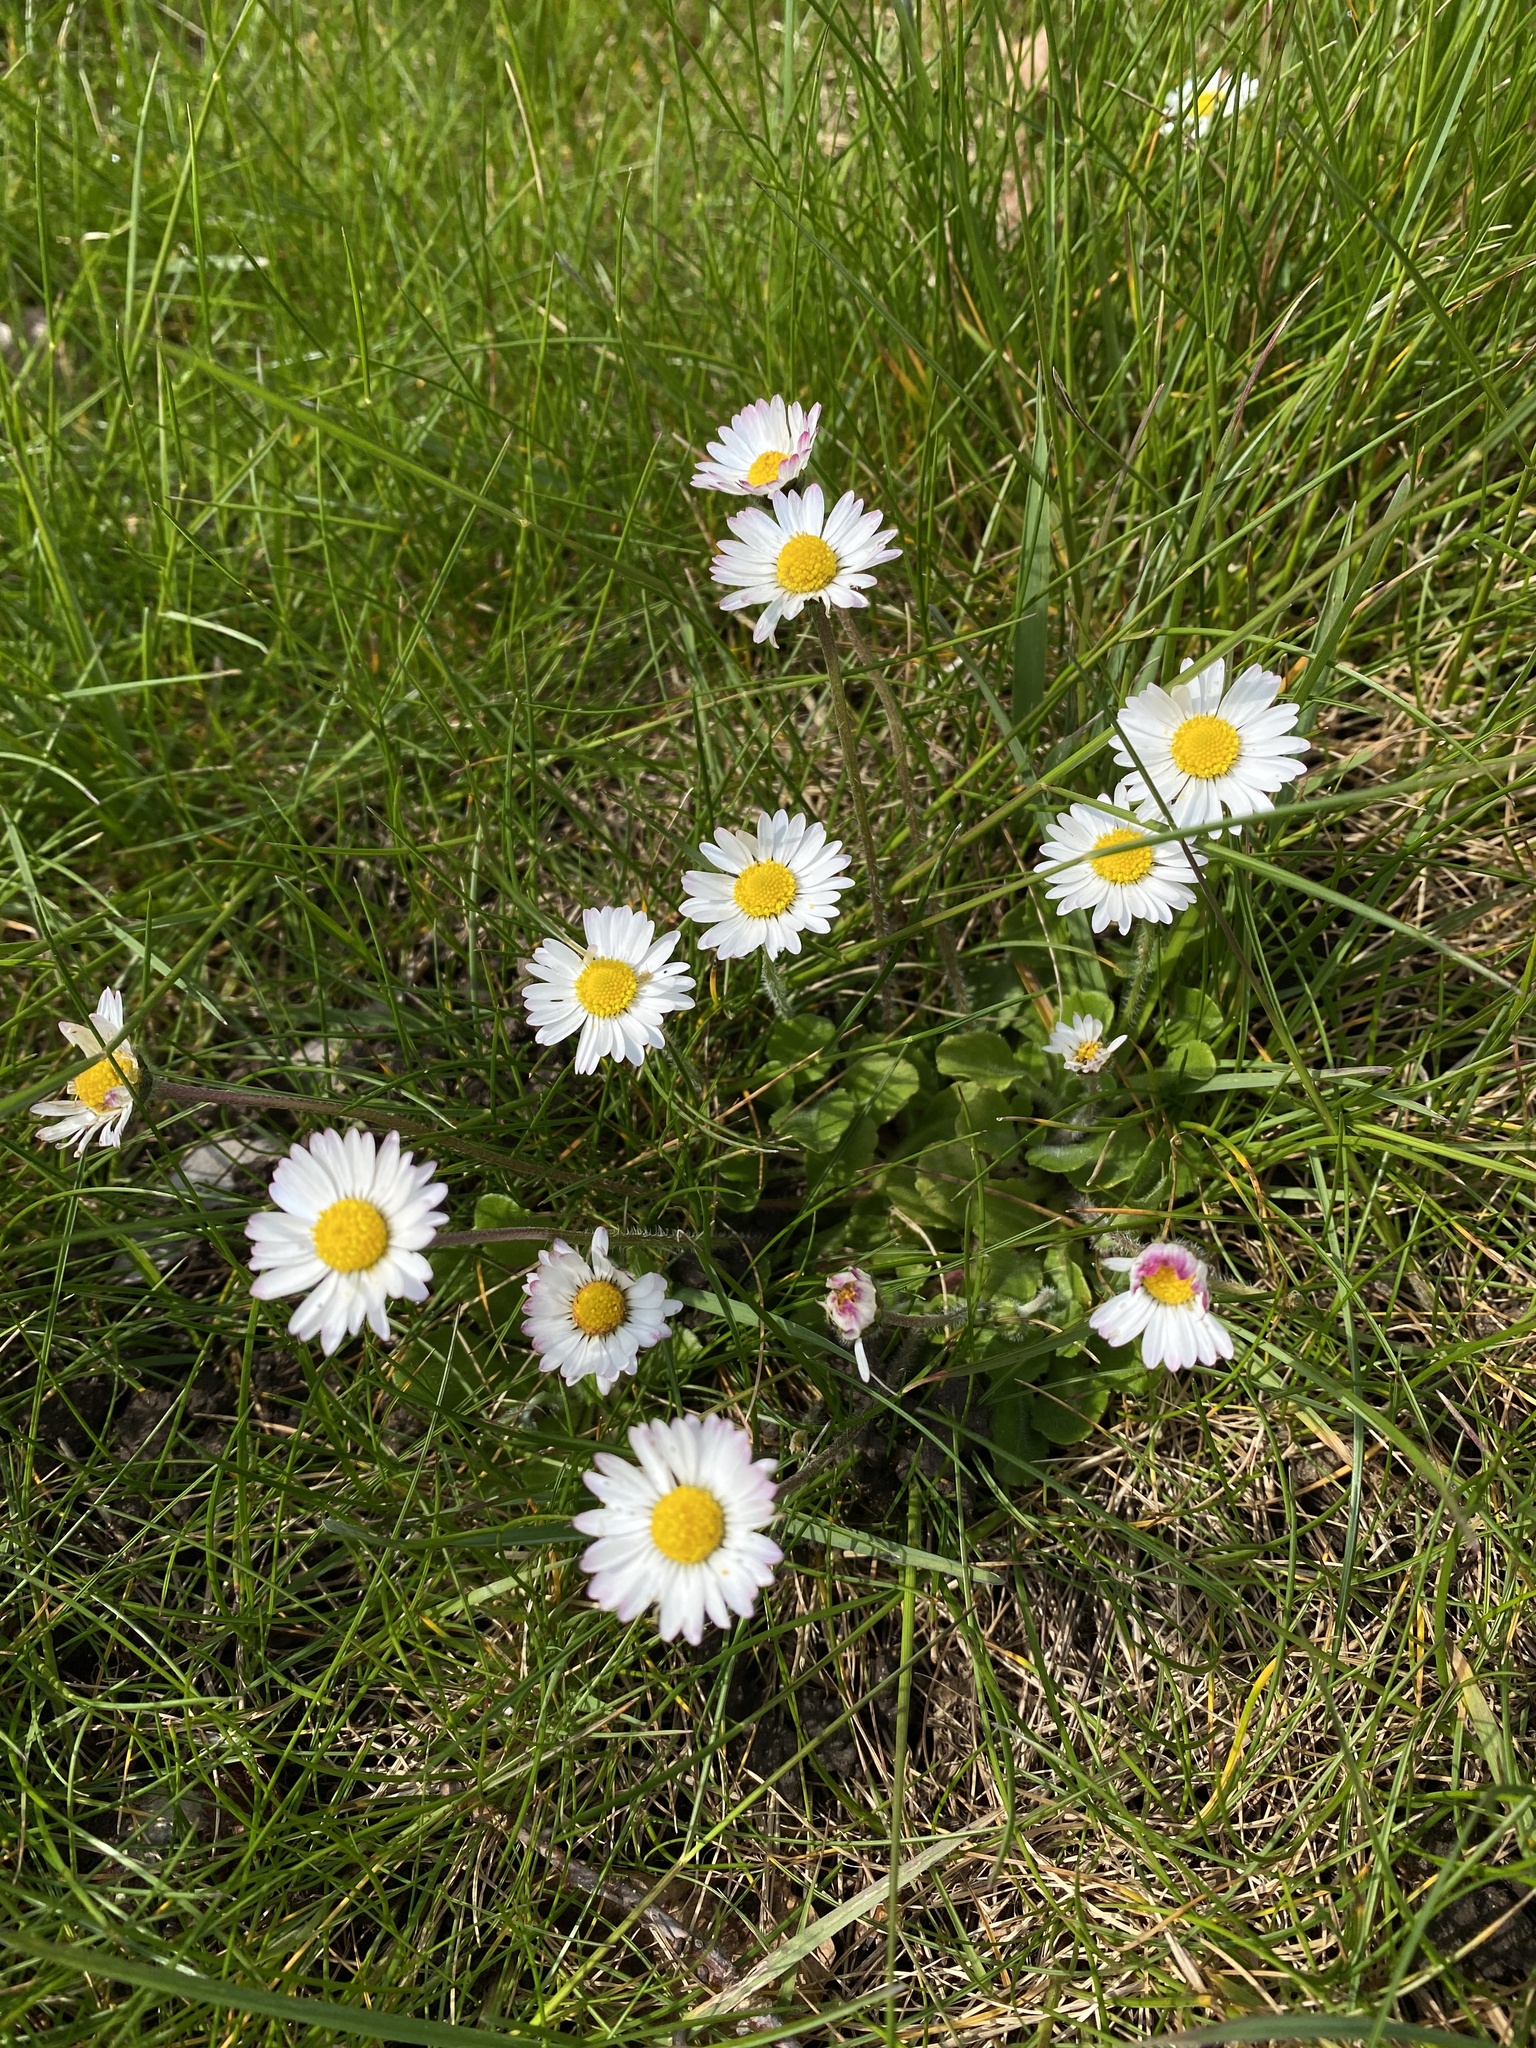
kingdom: Plantae
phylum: Tracheophyta
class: Magnoliopsida
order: Asterales
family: Asteraceae
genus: Bellis
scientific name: Bellis perennis
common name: Lawndaisy
